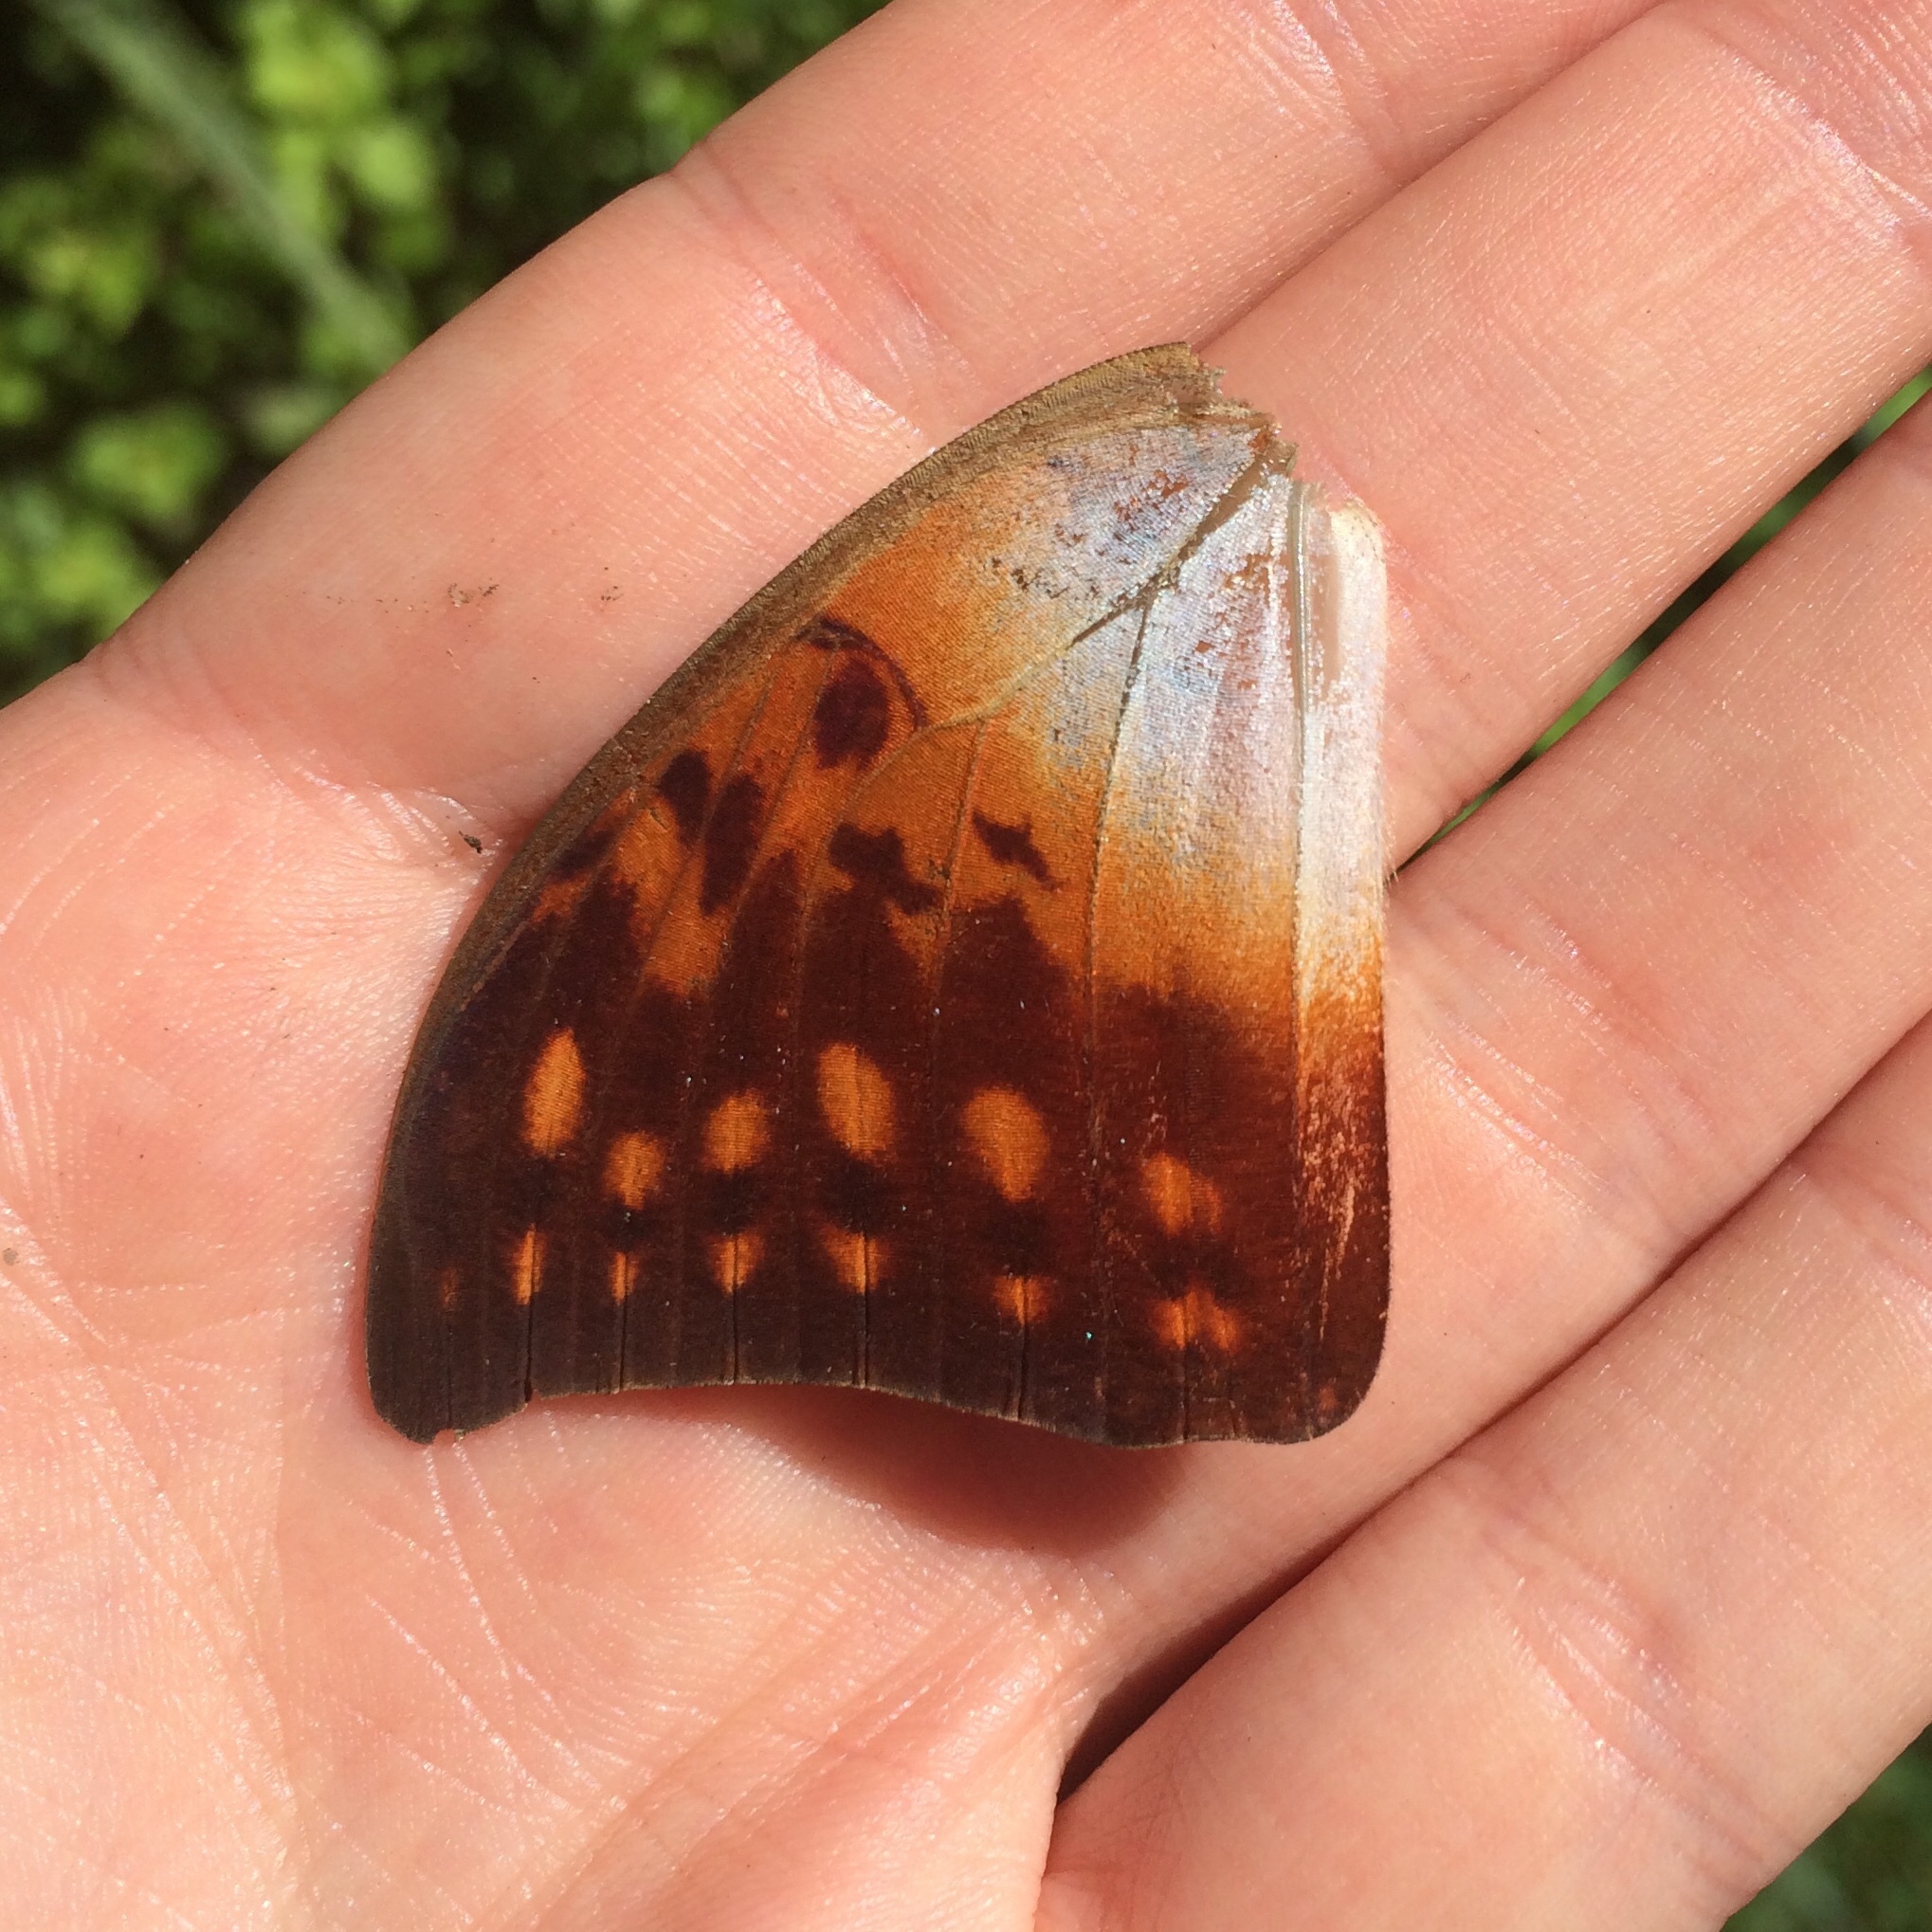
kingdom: Animalia
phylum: Arthropoda
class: Insecta
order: Lepidoptera
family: Nymphalidae
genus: Charaxes
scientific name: Charaxes varanes
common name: Common pearl charaxes
